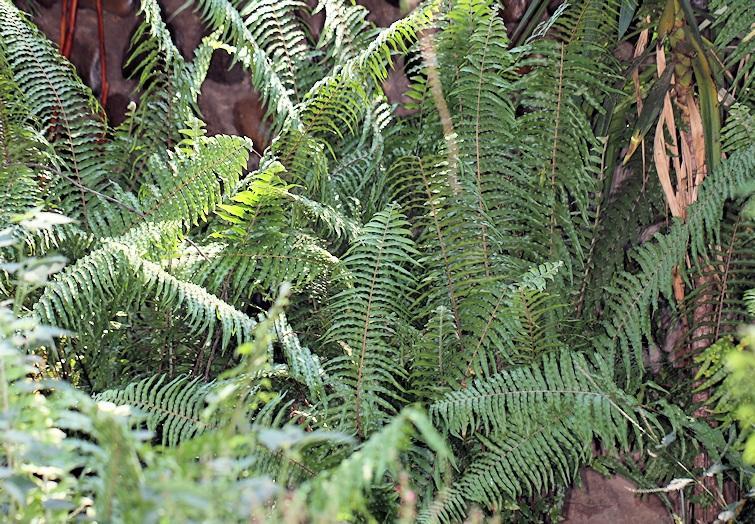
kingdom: Plantae
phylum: Tracheophyta
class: Polypodiopsida
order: Polypodiales
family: Nephrolepidaceae
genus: Nephrolepis
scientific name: Nephrolepis biserrata
